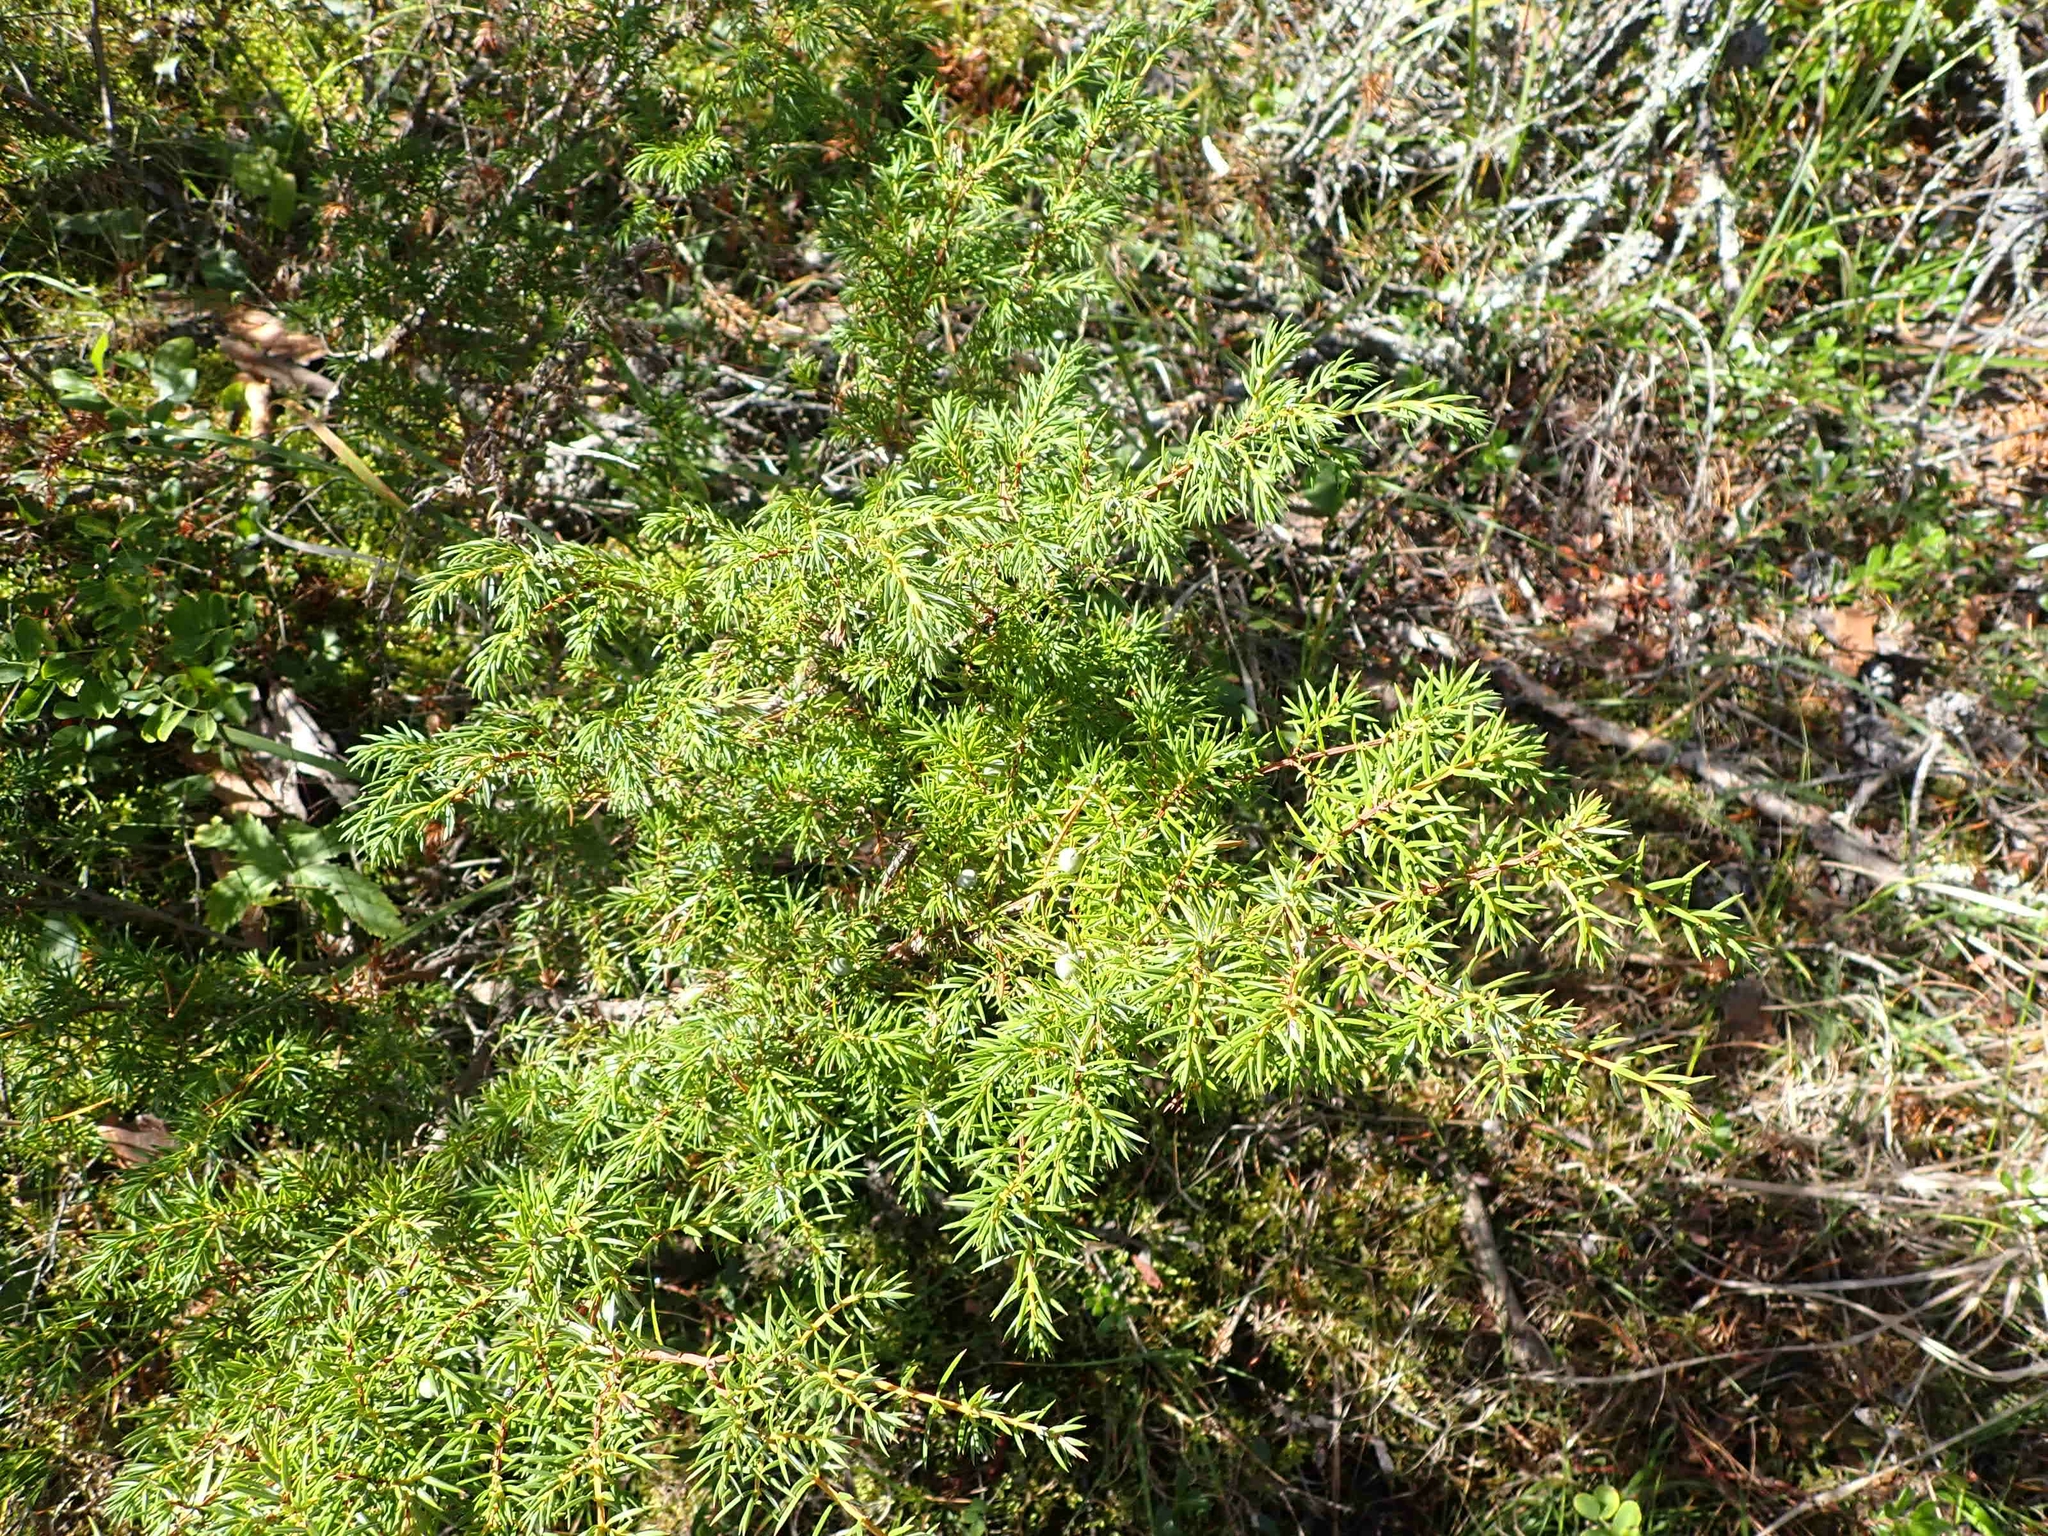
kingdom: Plantae
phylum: Tracheophyta
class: Pinopsida
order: Pinales
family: Cupressaceae
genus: Juniperus
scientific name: Juniperus communis
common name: Common juniper
